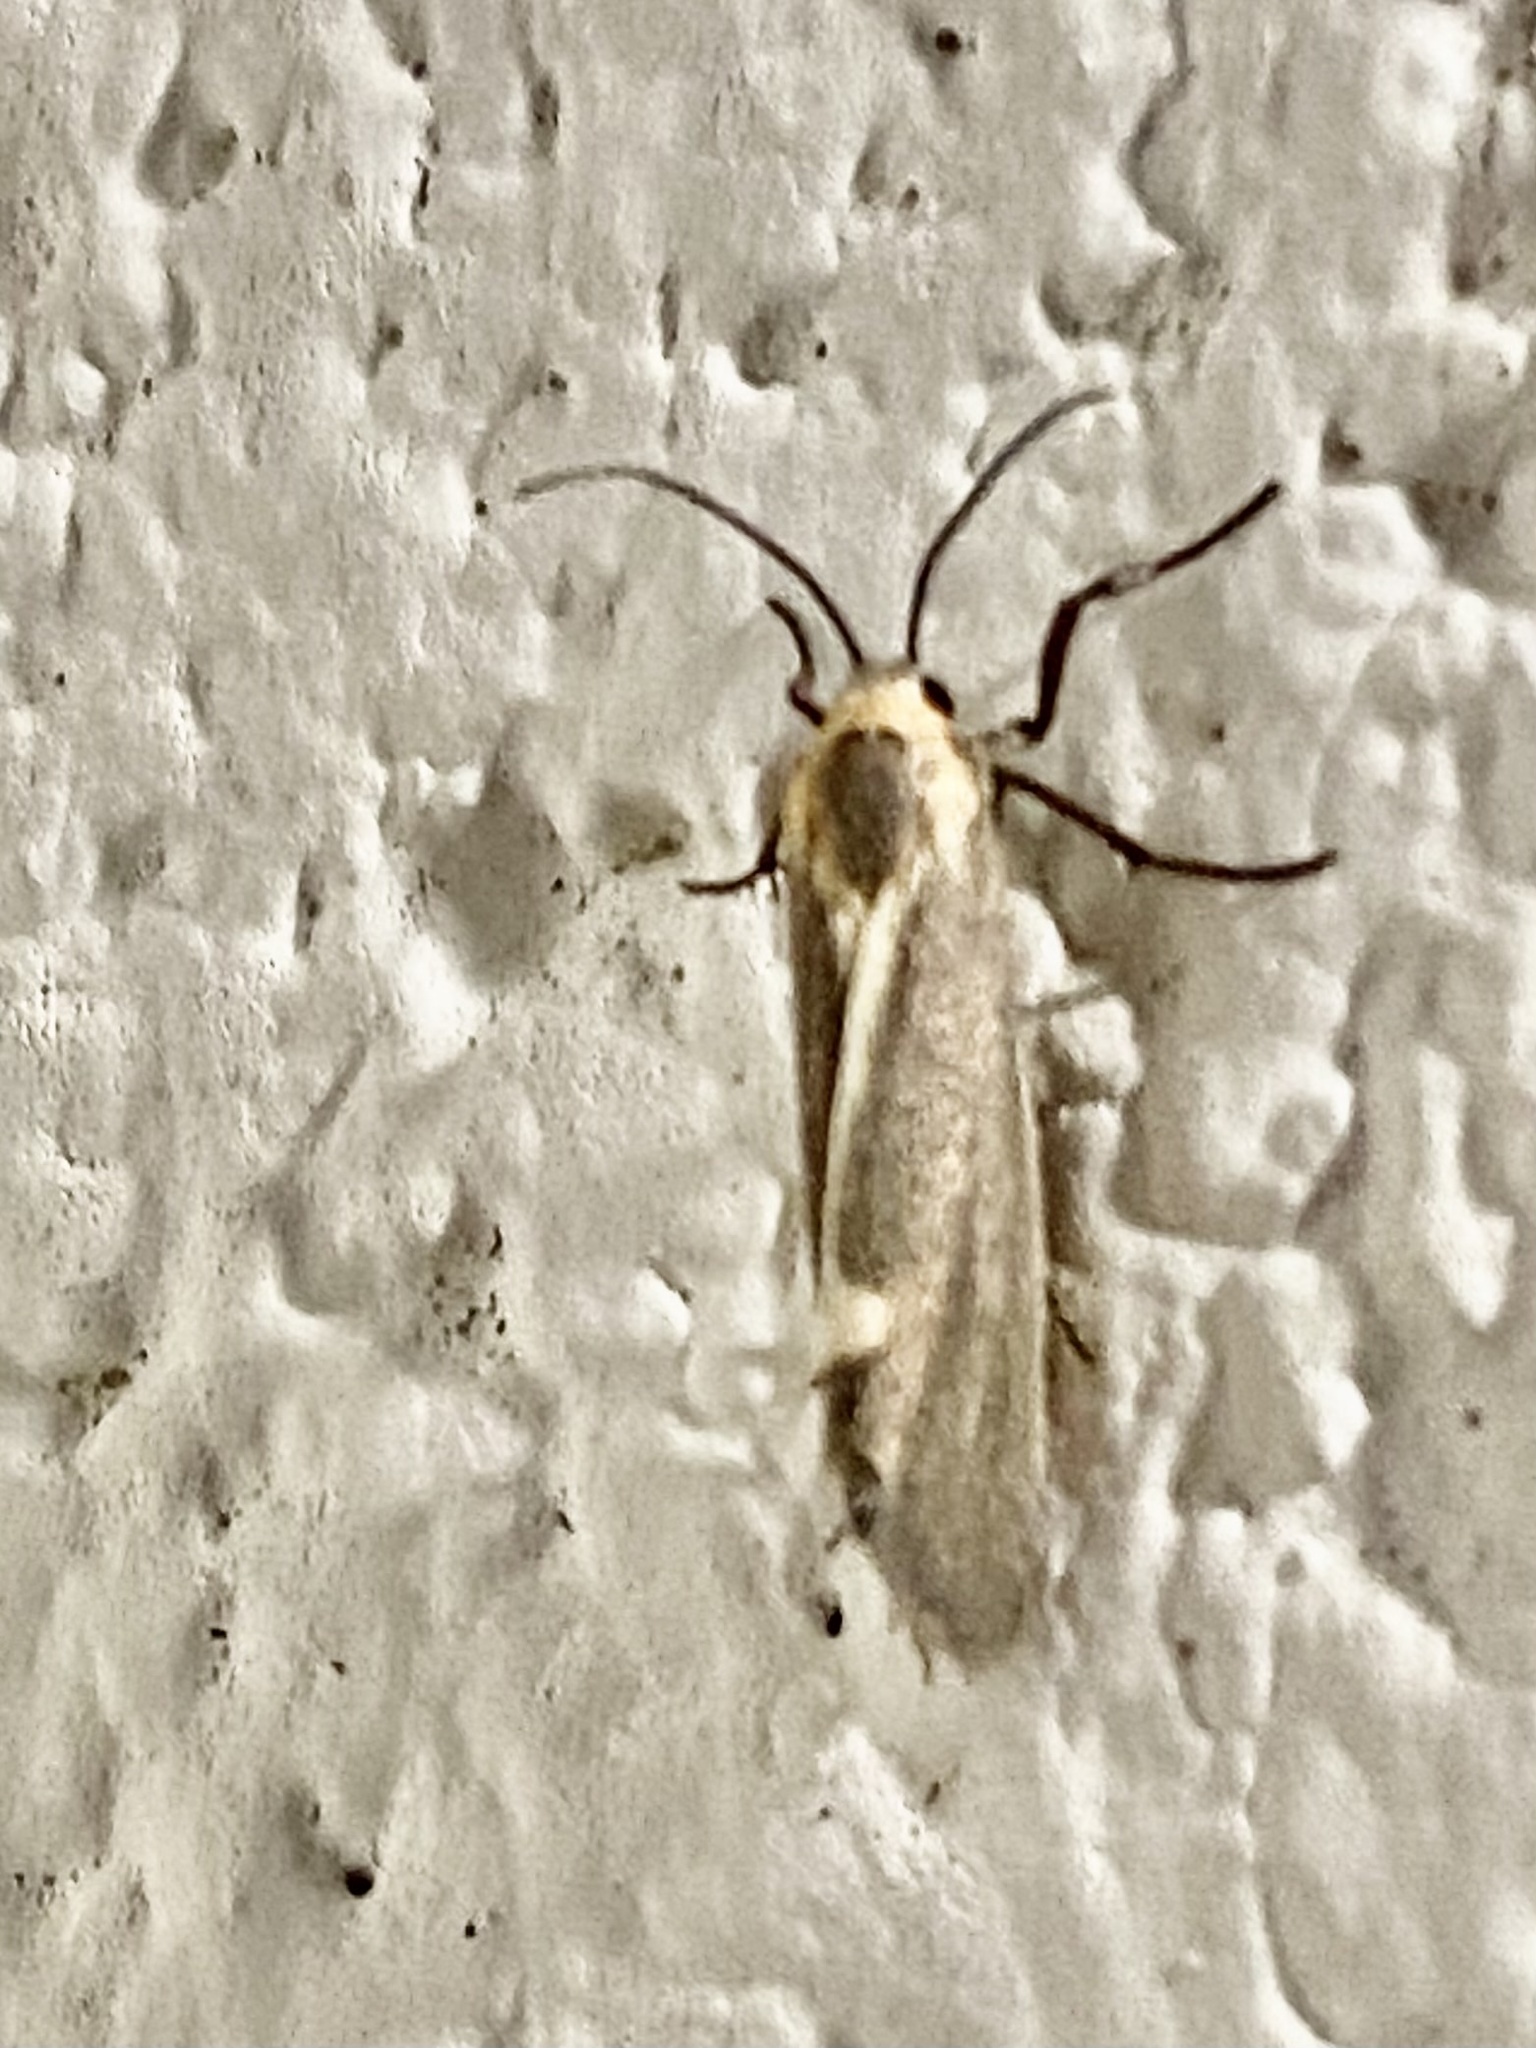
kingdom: Animalia
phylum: Arthropoda
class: Insecta
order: Lepidoptera
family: Erebidae
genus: Cisthene
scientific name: Cisthene plumbea
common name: Lead colored lichen moth
